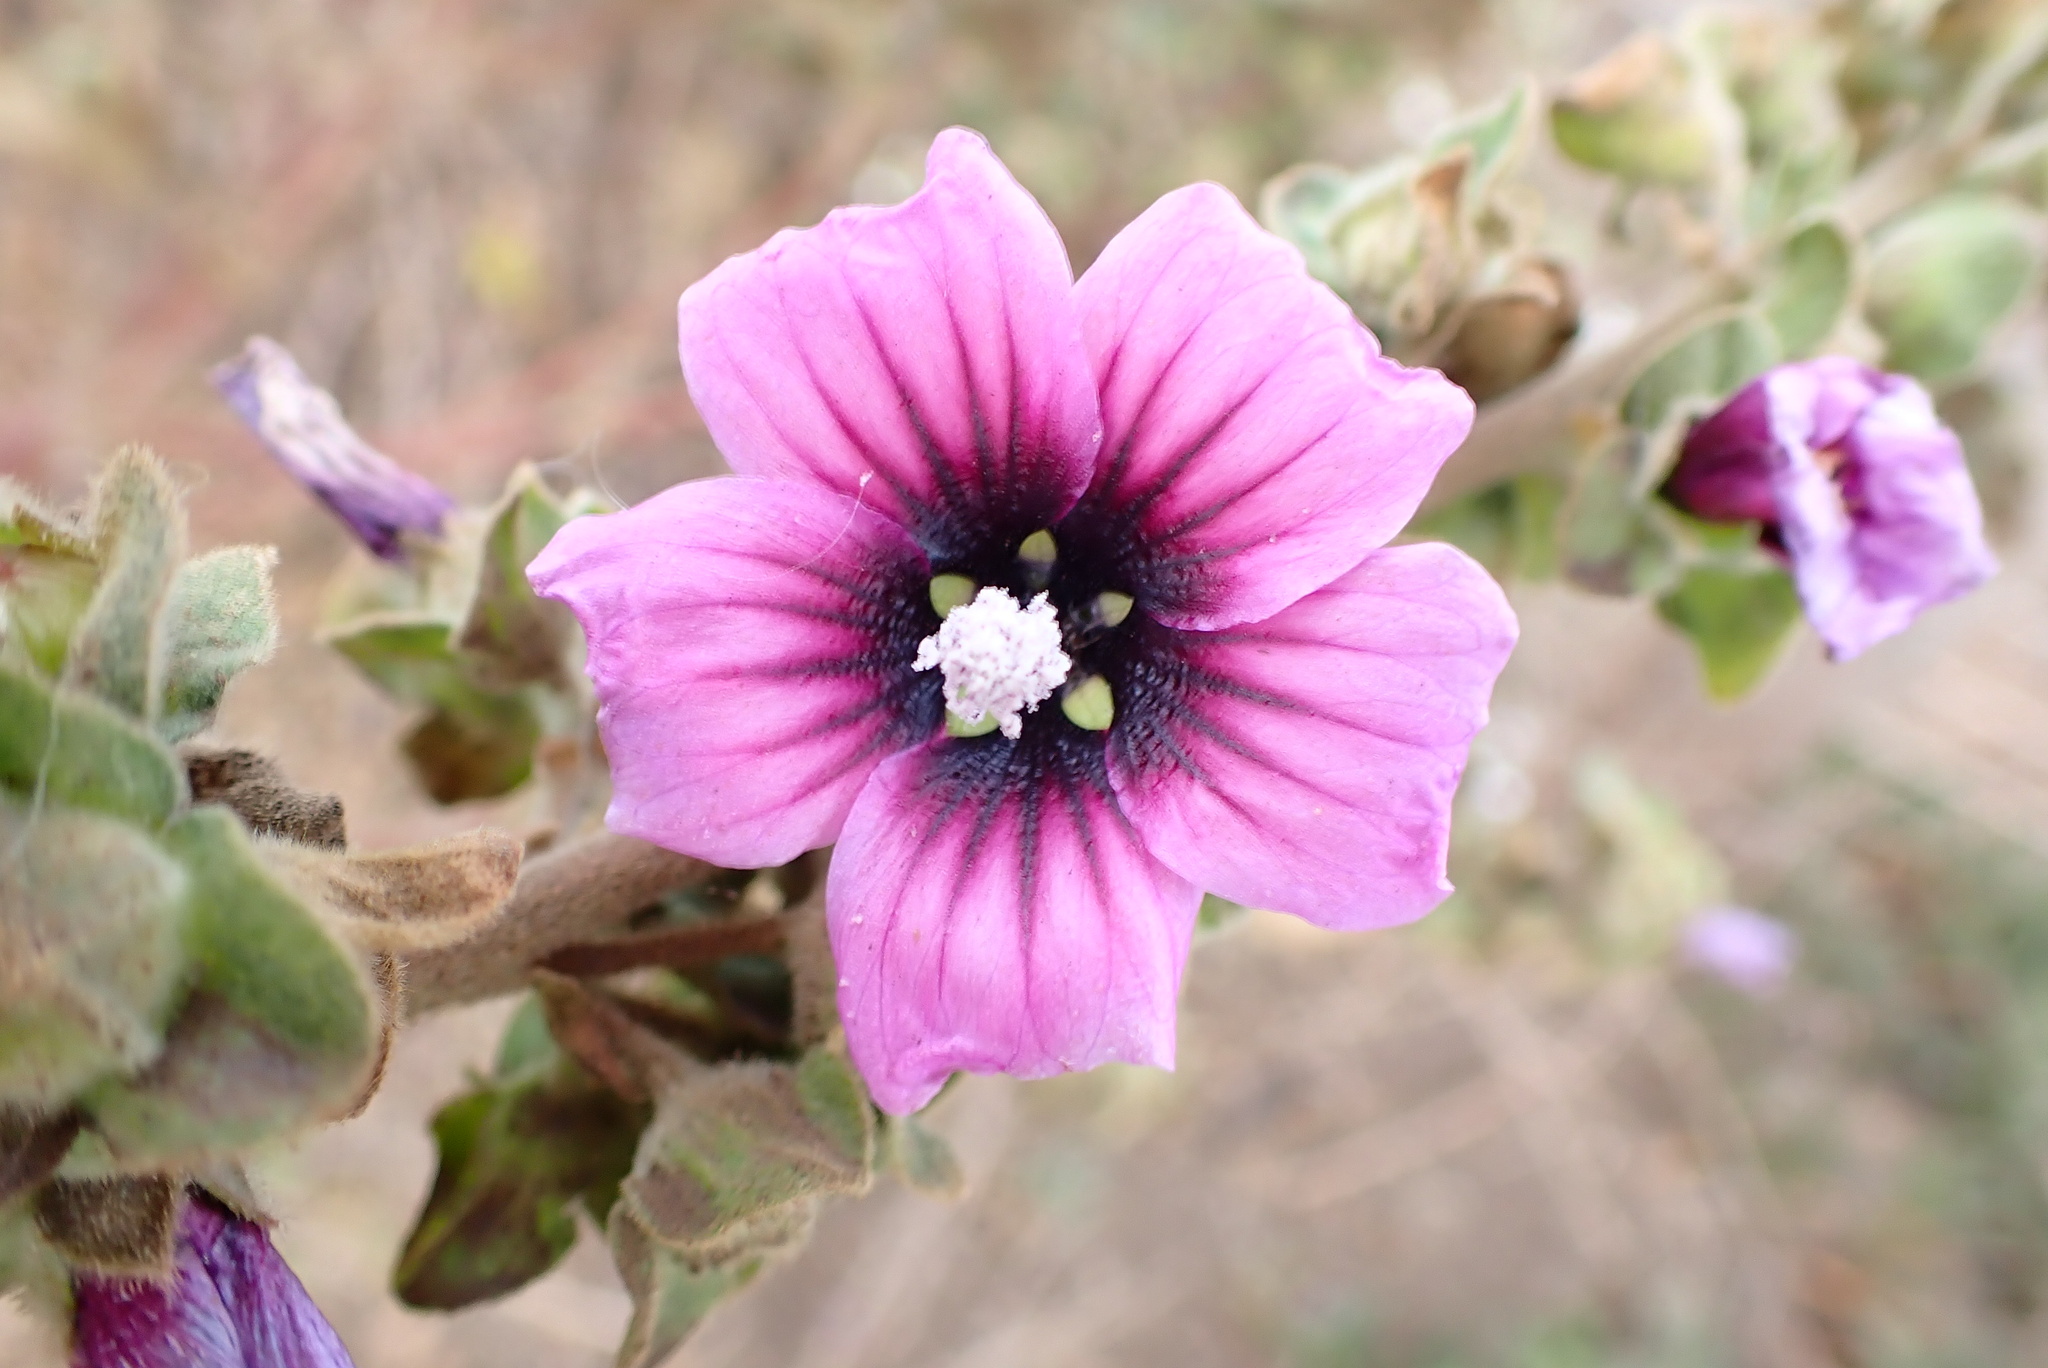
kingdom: Plantae
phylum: Tracheophyta
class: Magnoliopsida
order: Malvales
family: Malvaceae
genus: Malva
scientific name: Malva arborea
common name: Tree mallow
